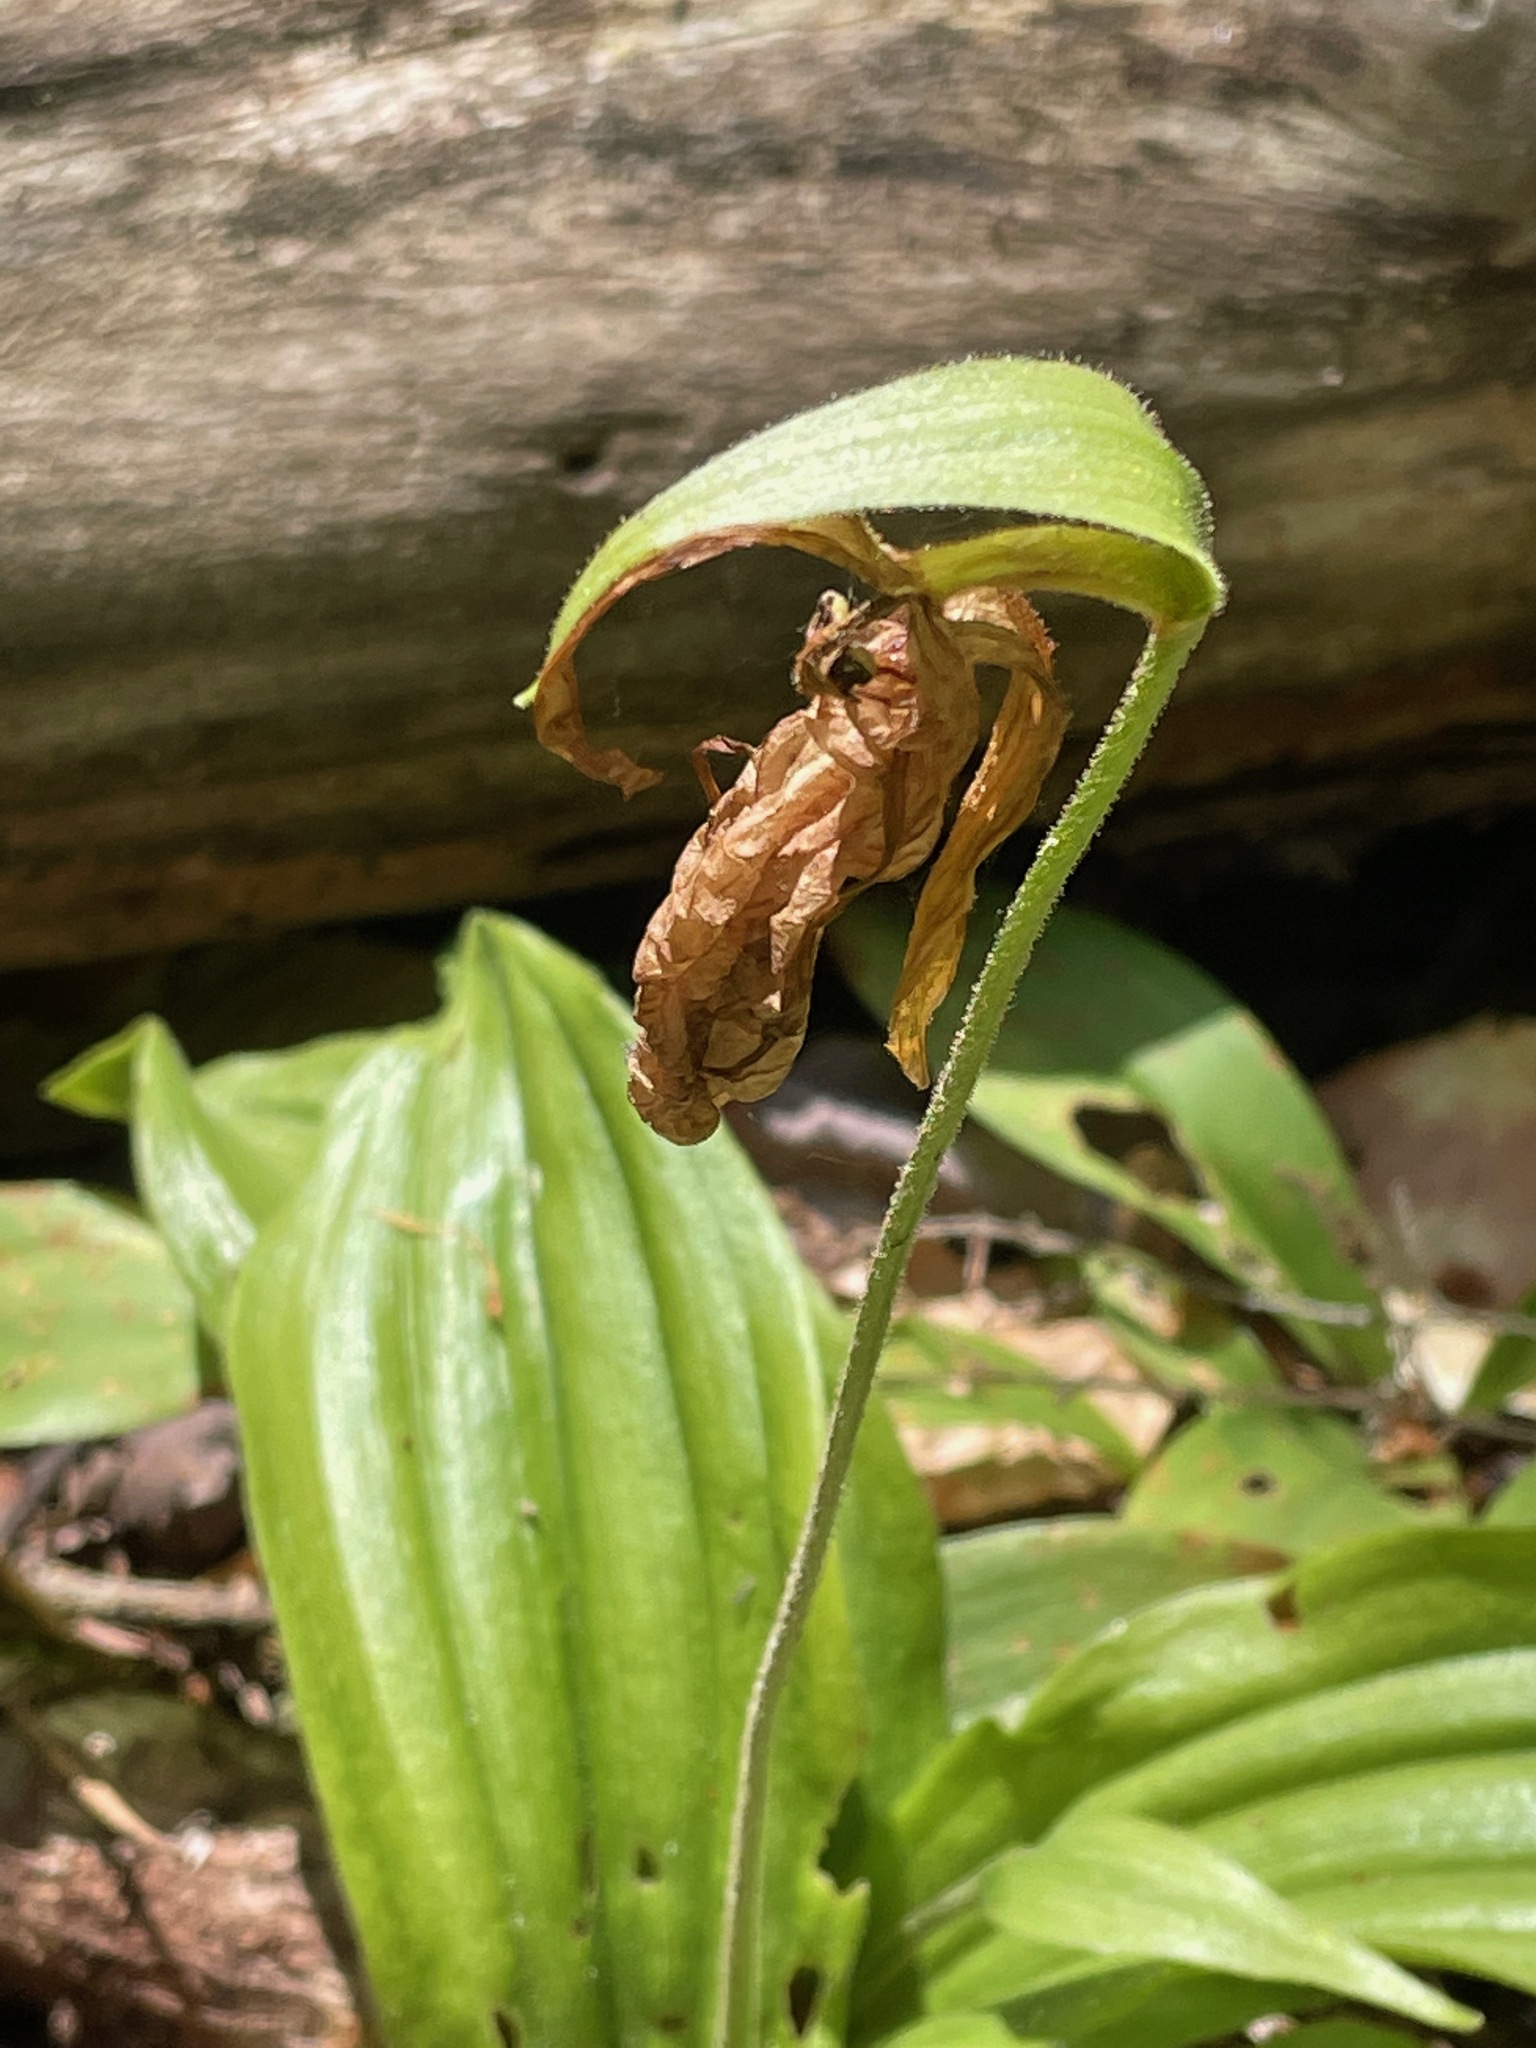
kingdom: Plantae
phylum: Tracheophyta
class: Liliopsida
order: Asparagales
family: Orchidaceae
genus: Cypripedium
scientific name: Cypripedium acaule
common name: Pink lady's-slipper
